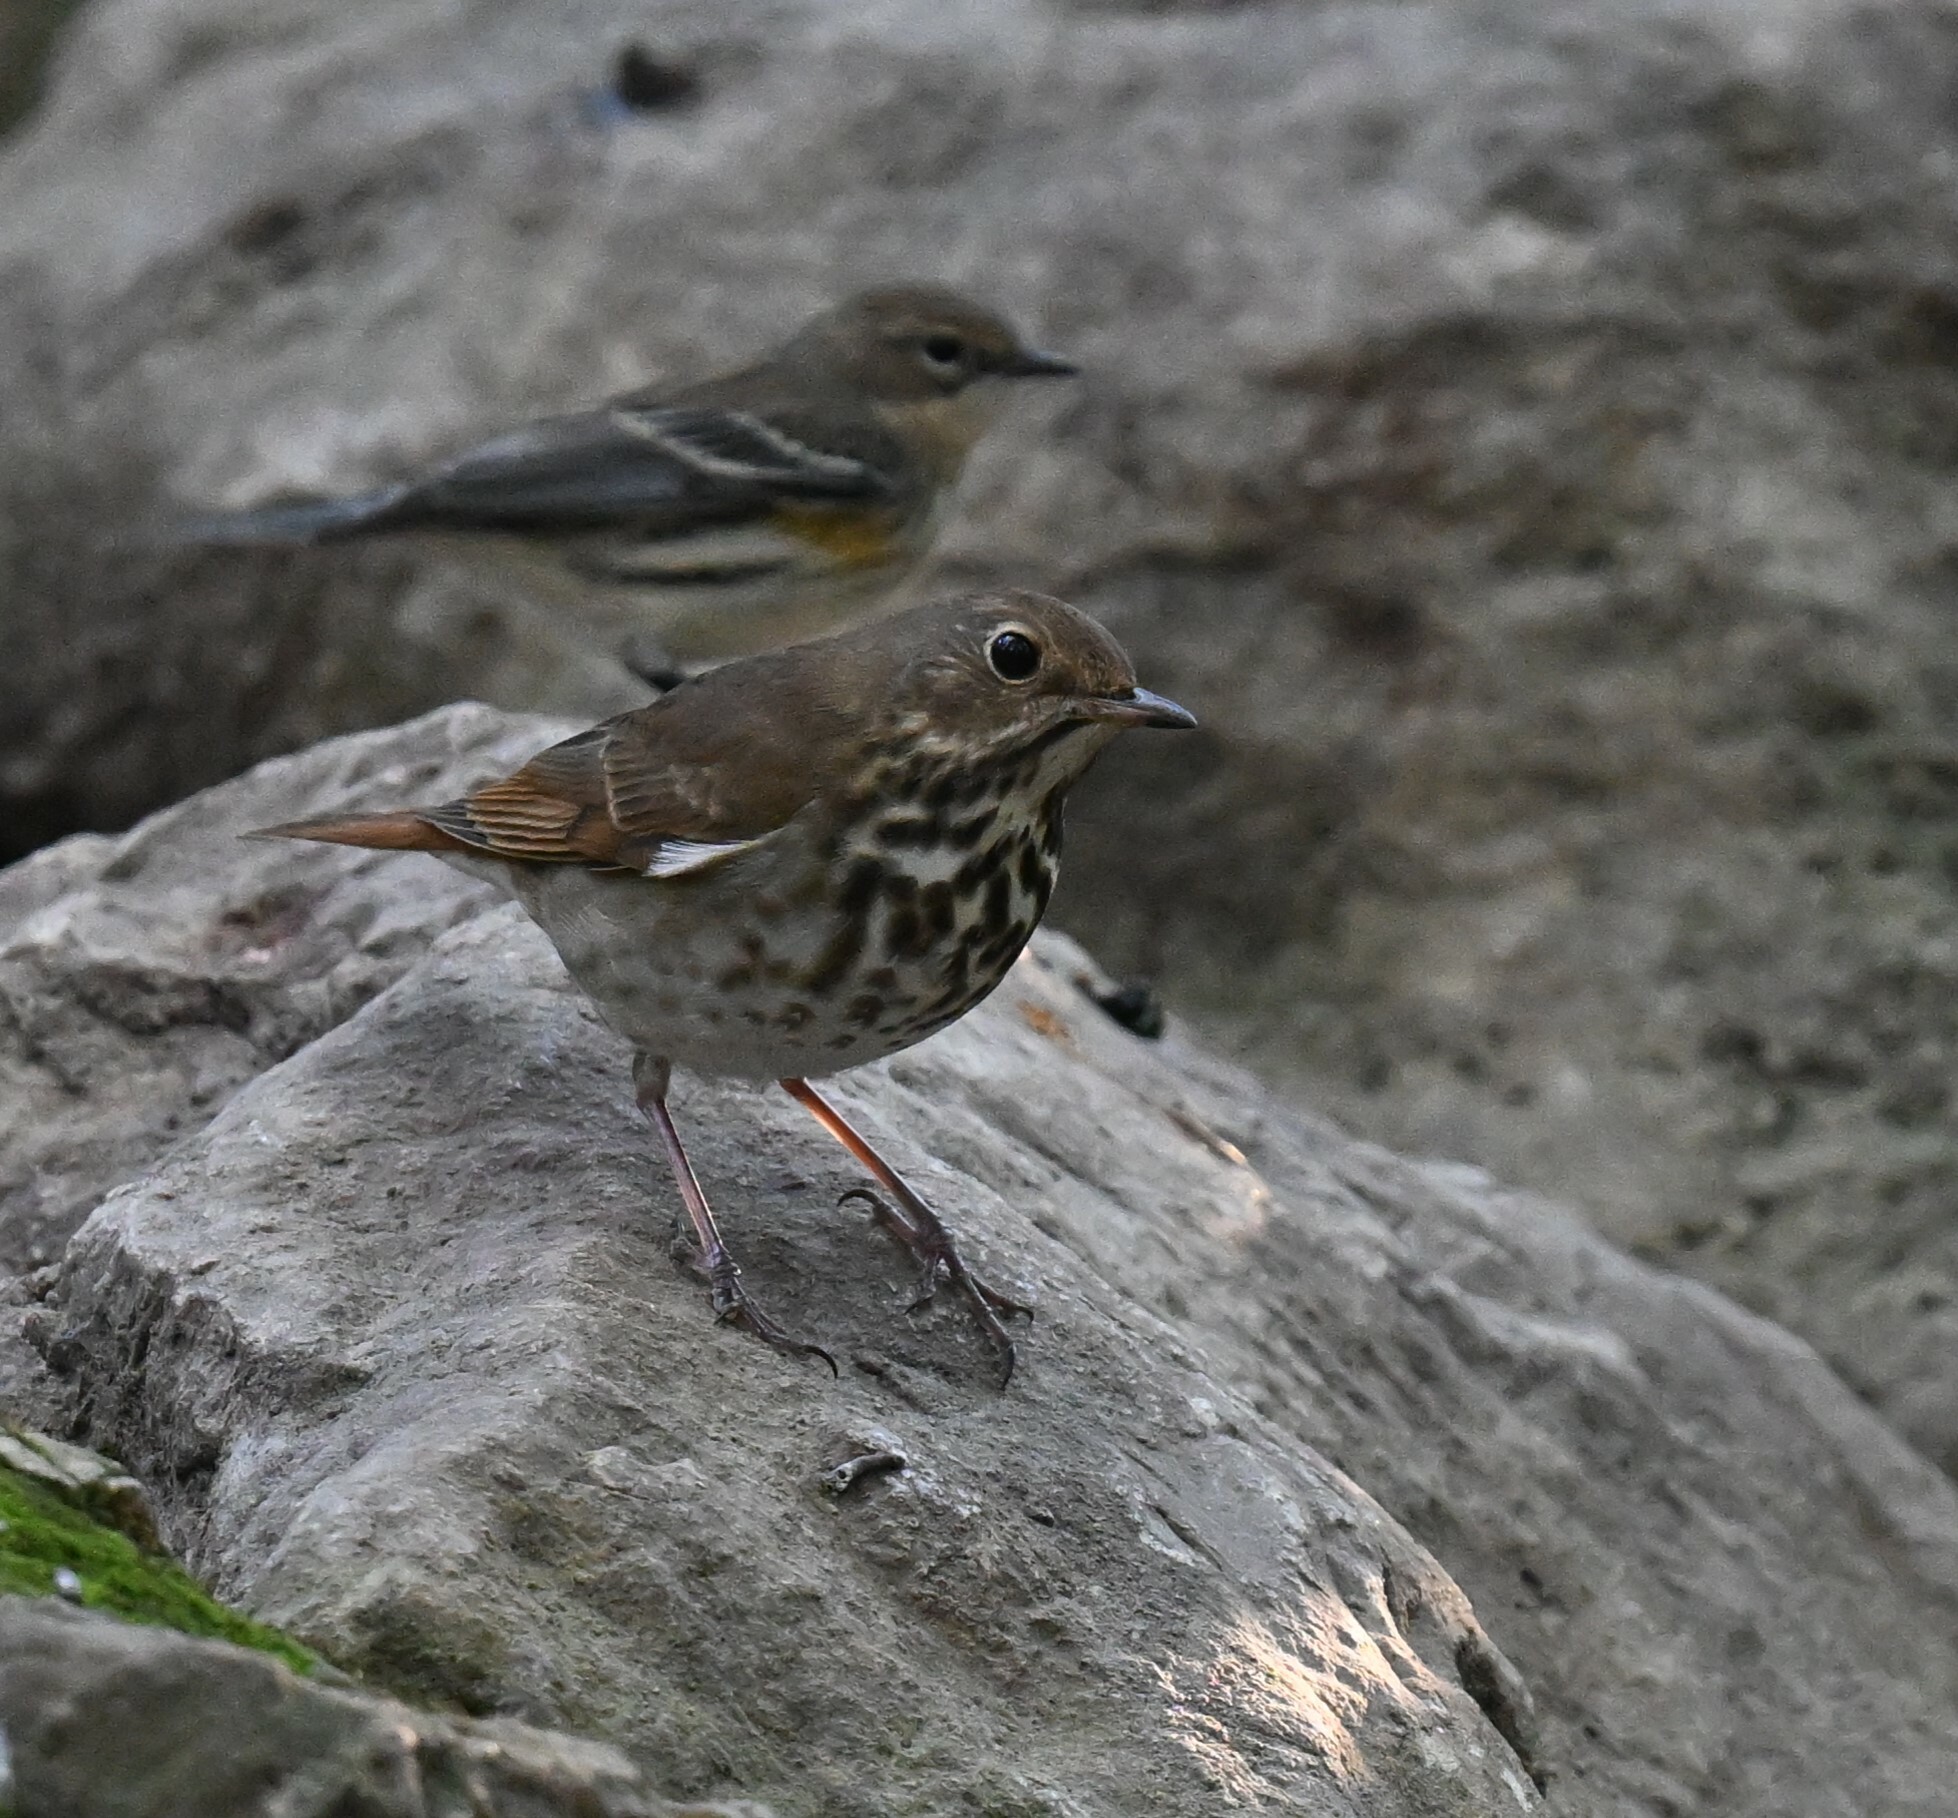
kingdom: Animalia
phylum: Chordata
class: Aves
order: Passeriformes
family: Turdidae
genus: Catharus
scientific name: Catharus guttatus
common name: Hermit thrush
